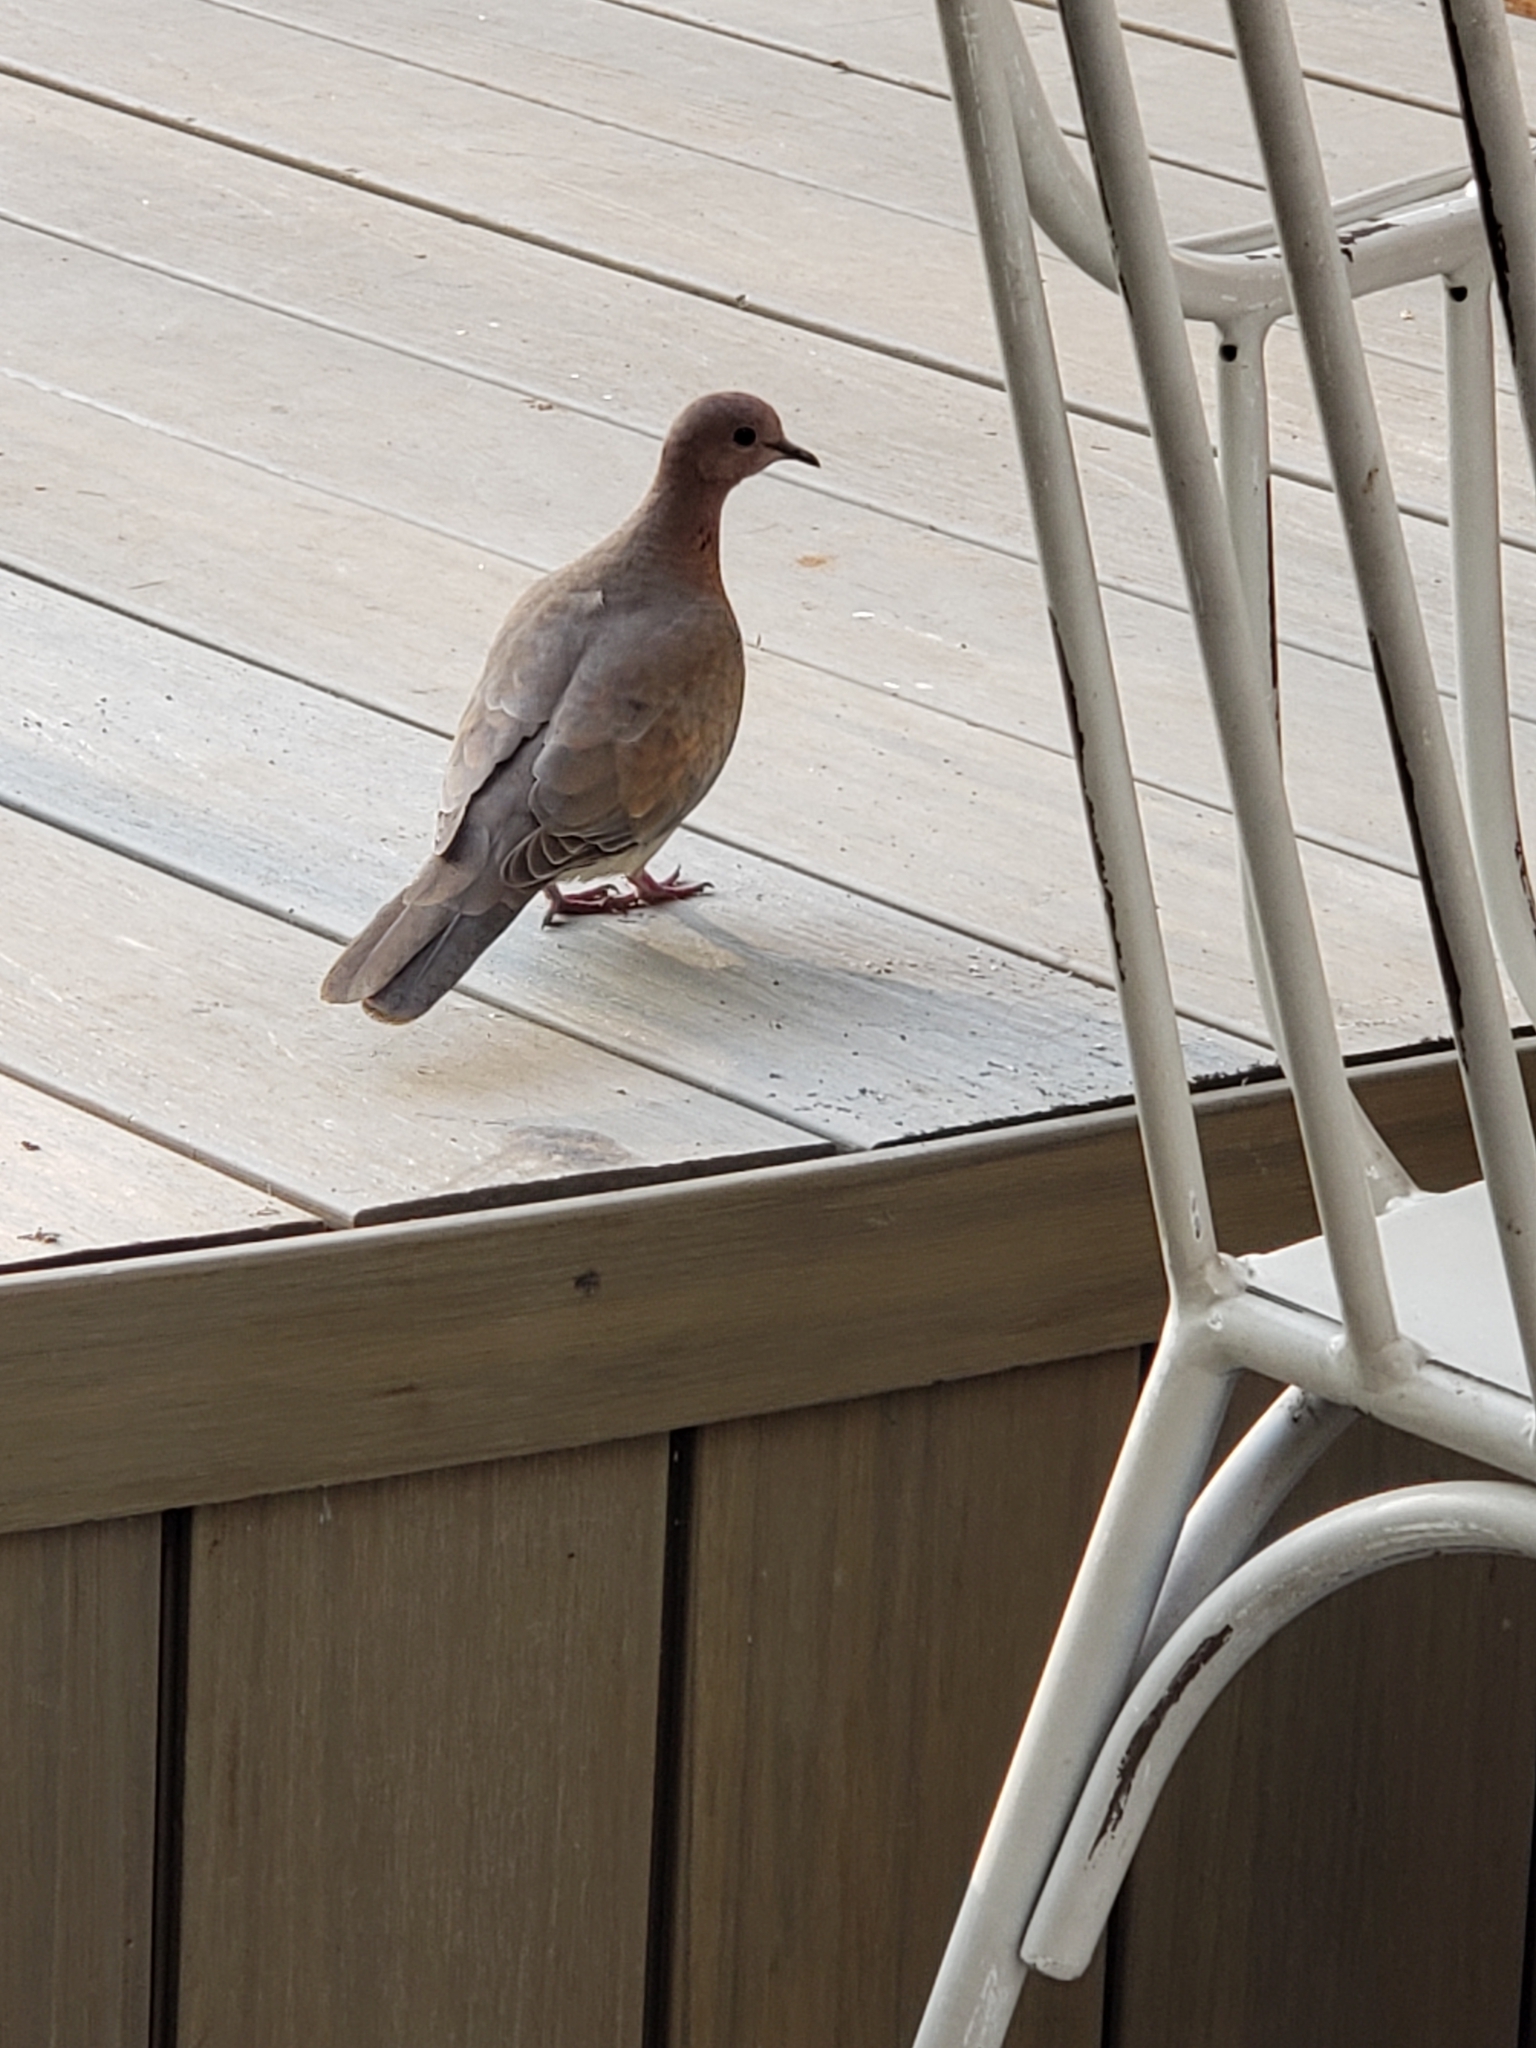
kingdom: Animalia
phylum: Chordata
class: Aves
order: Columbiformes
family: Columbidae
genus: Spilopelia
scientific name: Spilopelia senegalensis
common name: Laughing dove
